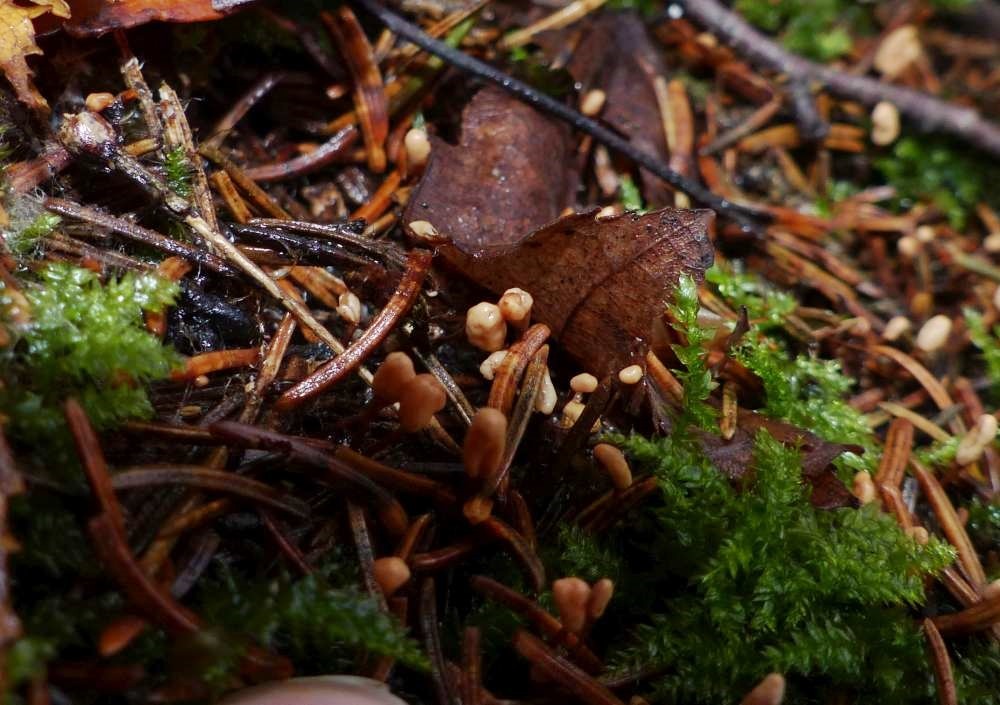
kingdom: Fungi
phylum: Ascomycota
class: Leotiomycetes
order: Helotiales
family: Cenangiaceae
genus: Heyderia
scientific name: Heyderia abietis
